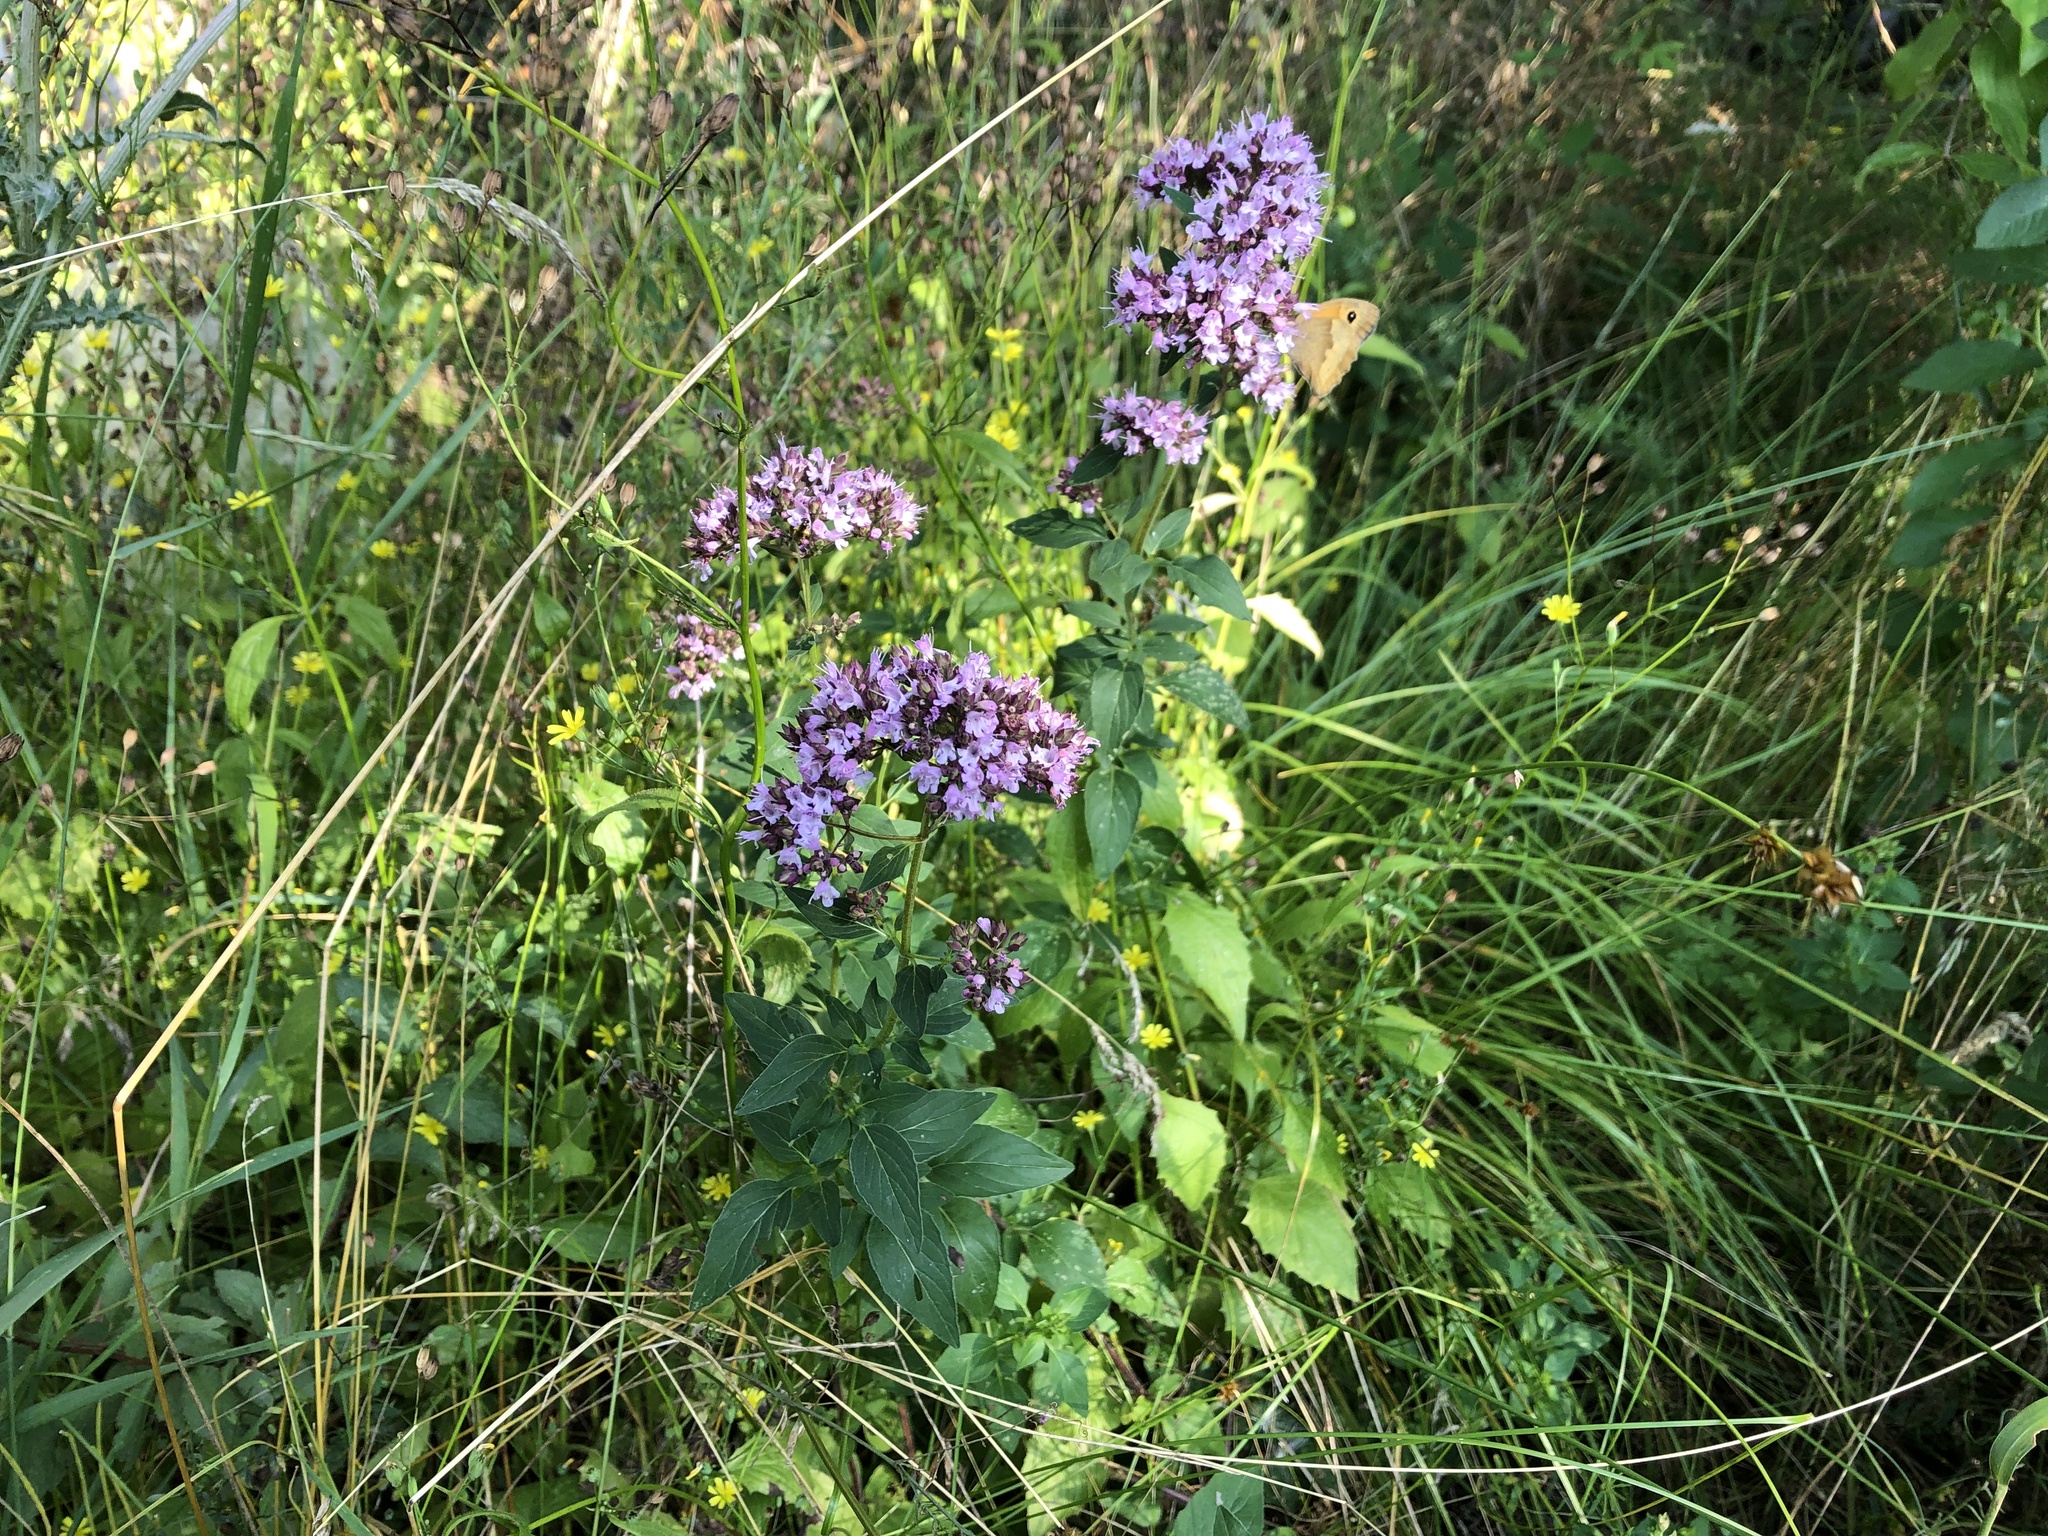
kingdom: Plantae
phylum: Tracheophyta
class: Magnoliopsida
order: Lamiales
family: Lamiaceae
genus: Origanum
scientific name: Origanum vulgare
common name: Wild marjoram
